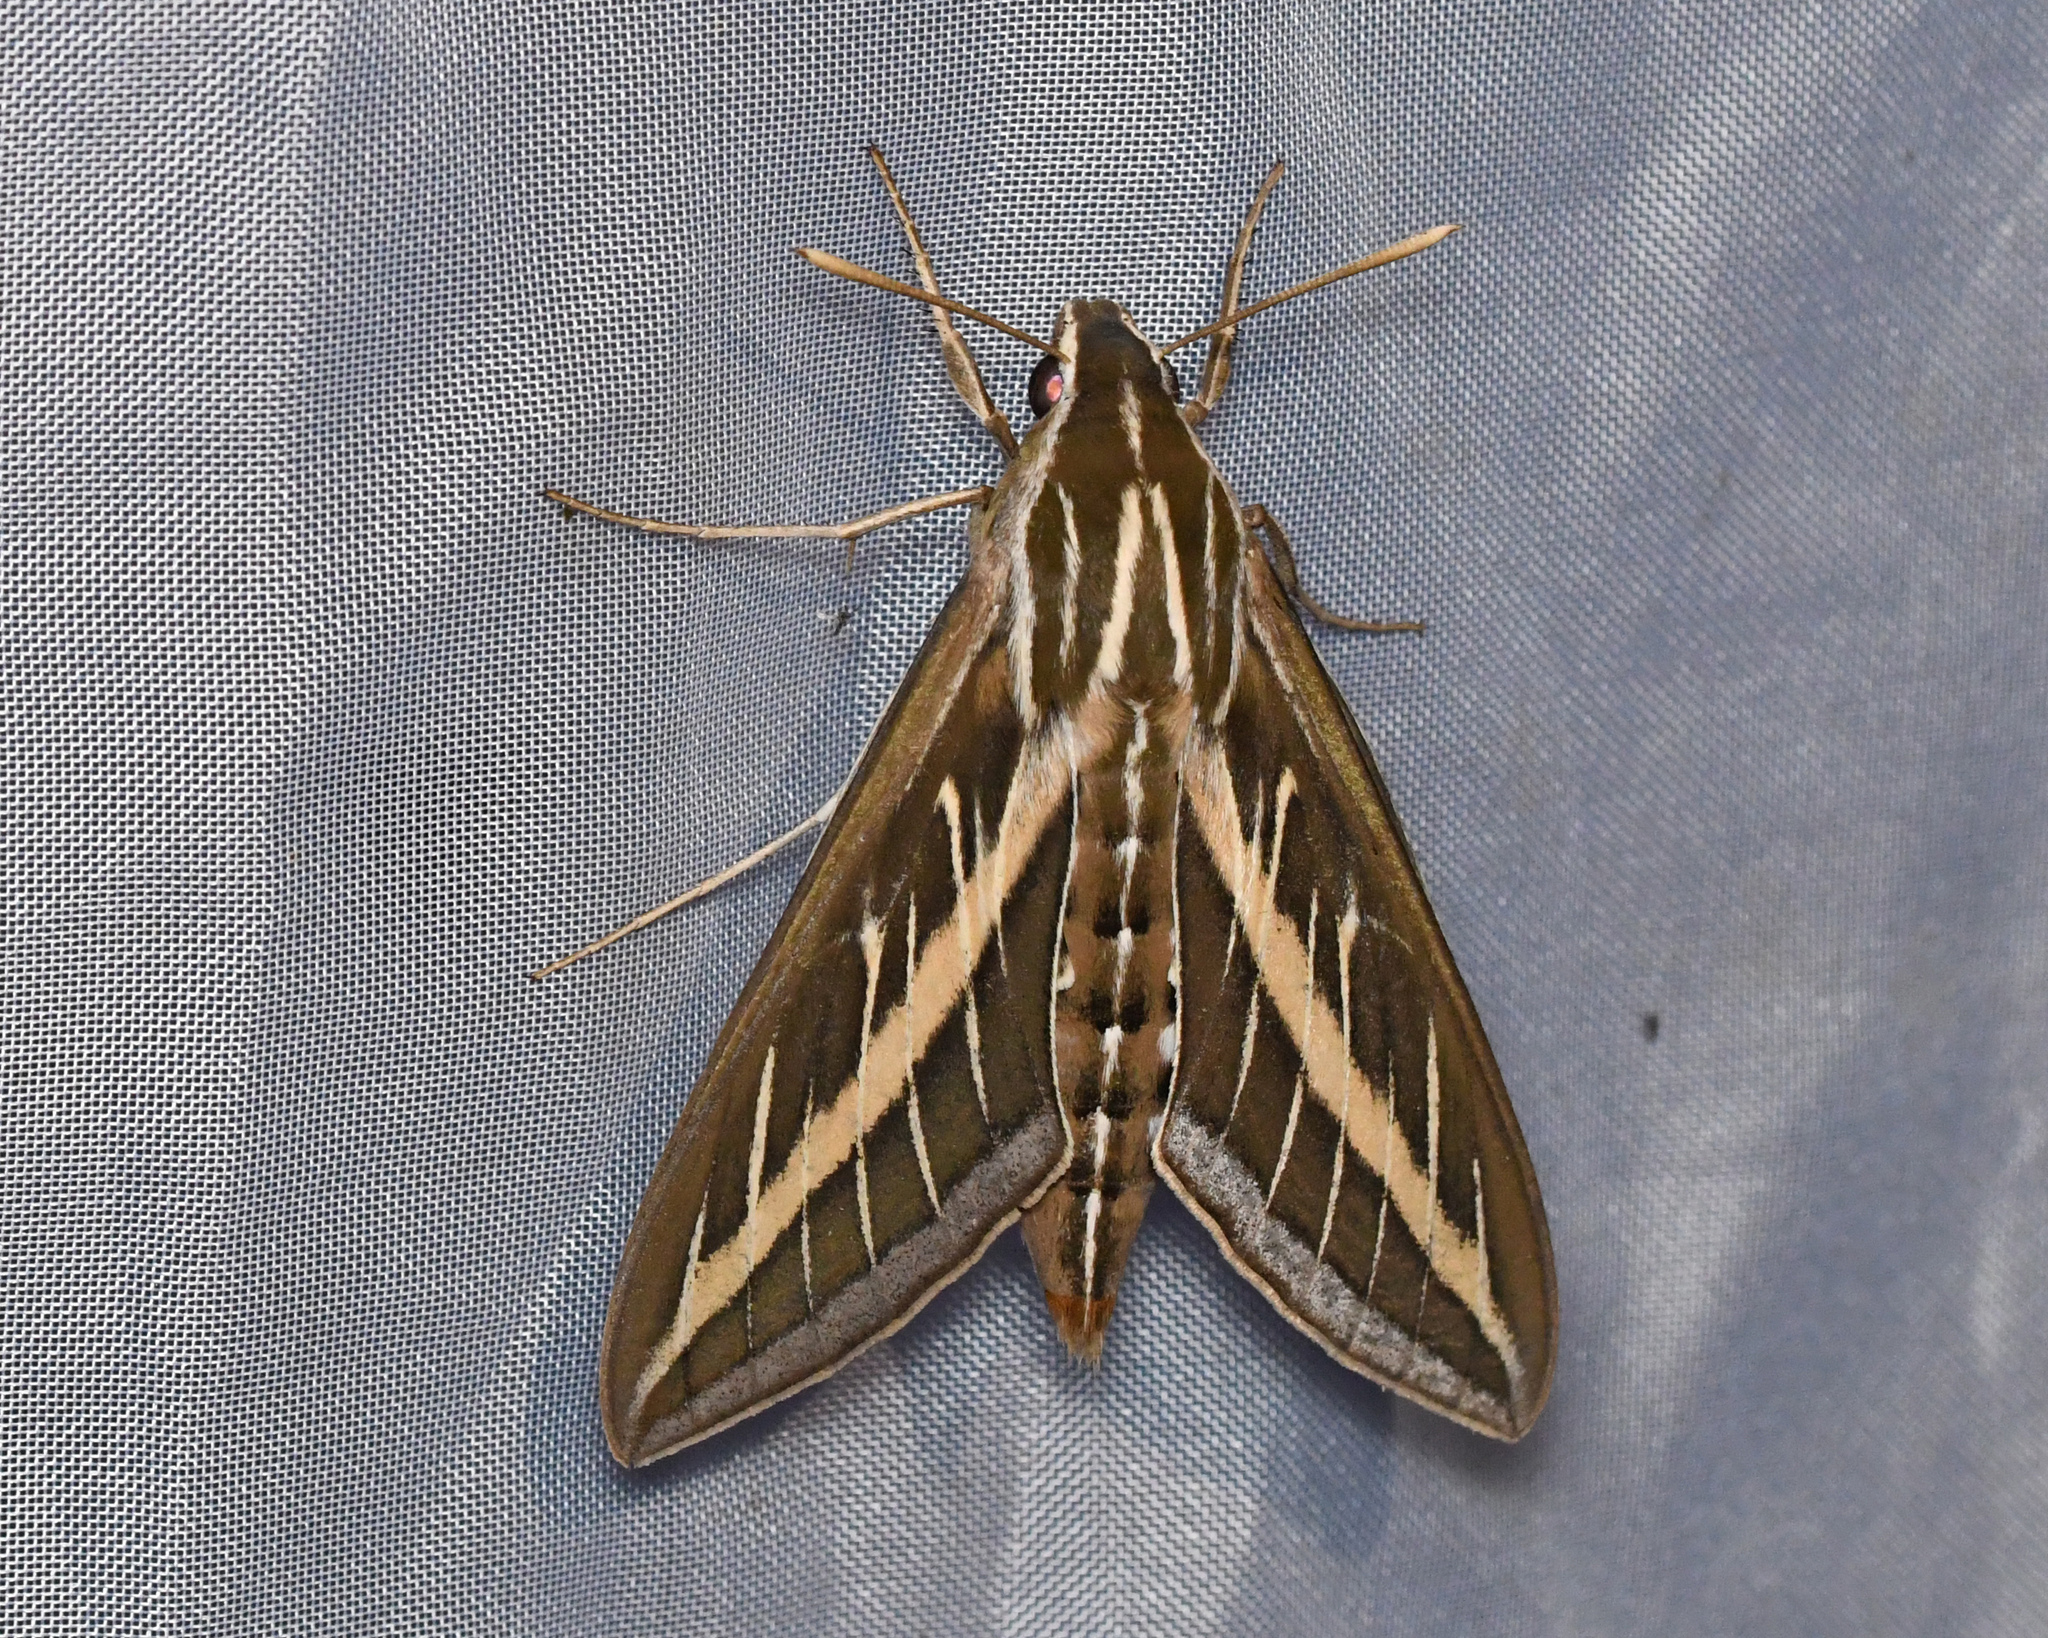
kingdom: Animalia
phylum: Arthropoda
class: Insecta
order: Lepidoptera
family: Sphingidae
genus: Hyles
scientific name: Hyles lineata
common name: White-lined sphinx
